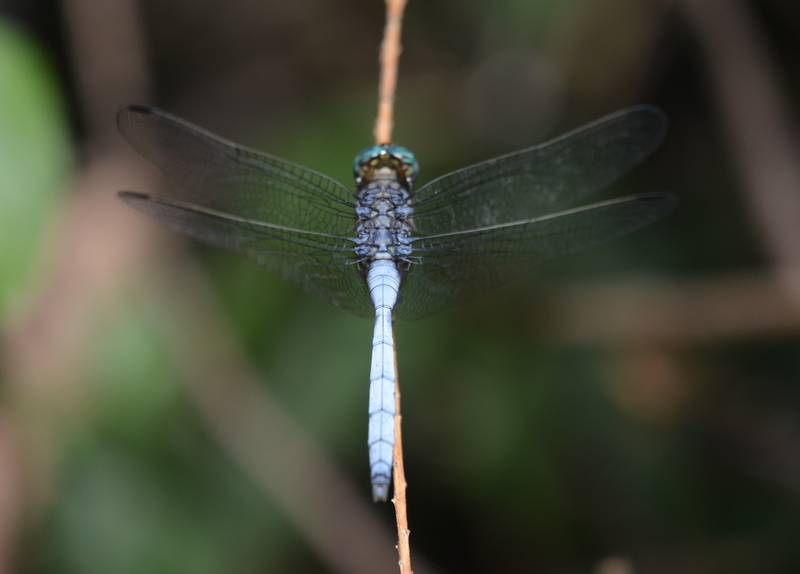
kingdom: Animalia
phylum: Arthropoda
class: Insecta
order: Odonata
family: Libellulidae
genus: Orthetrum
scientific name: Orthetrum julia
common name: Julia skimmer
